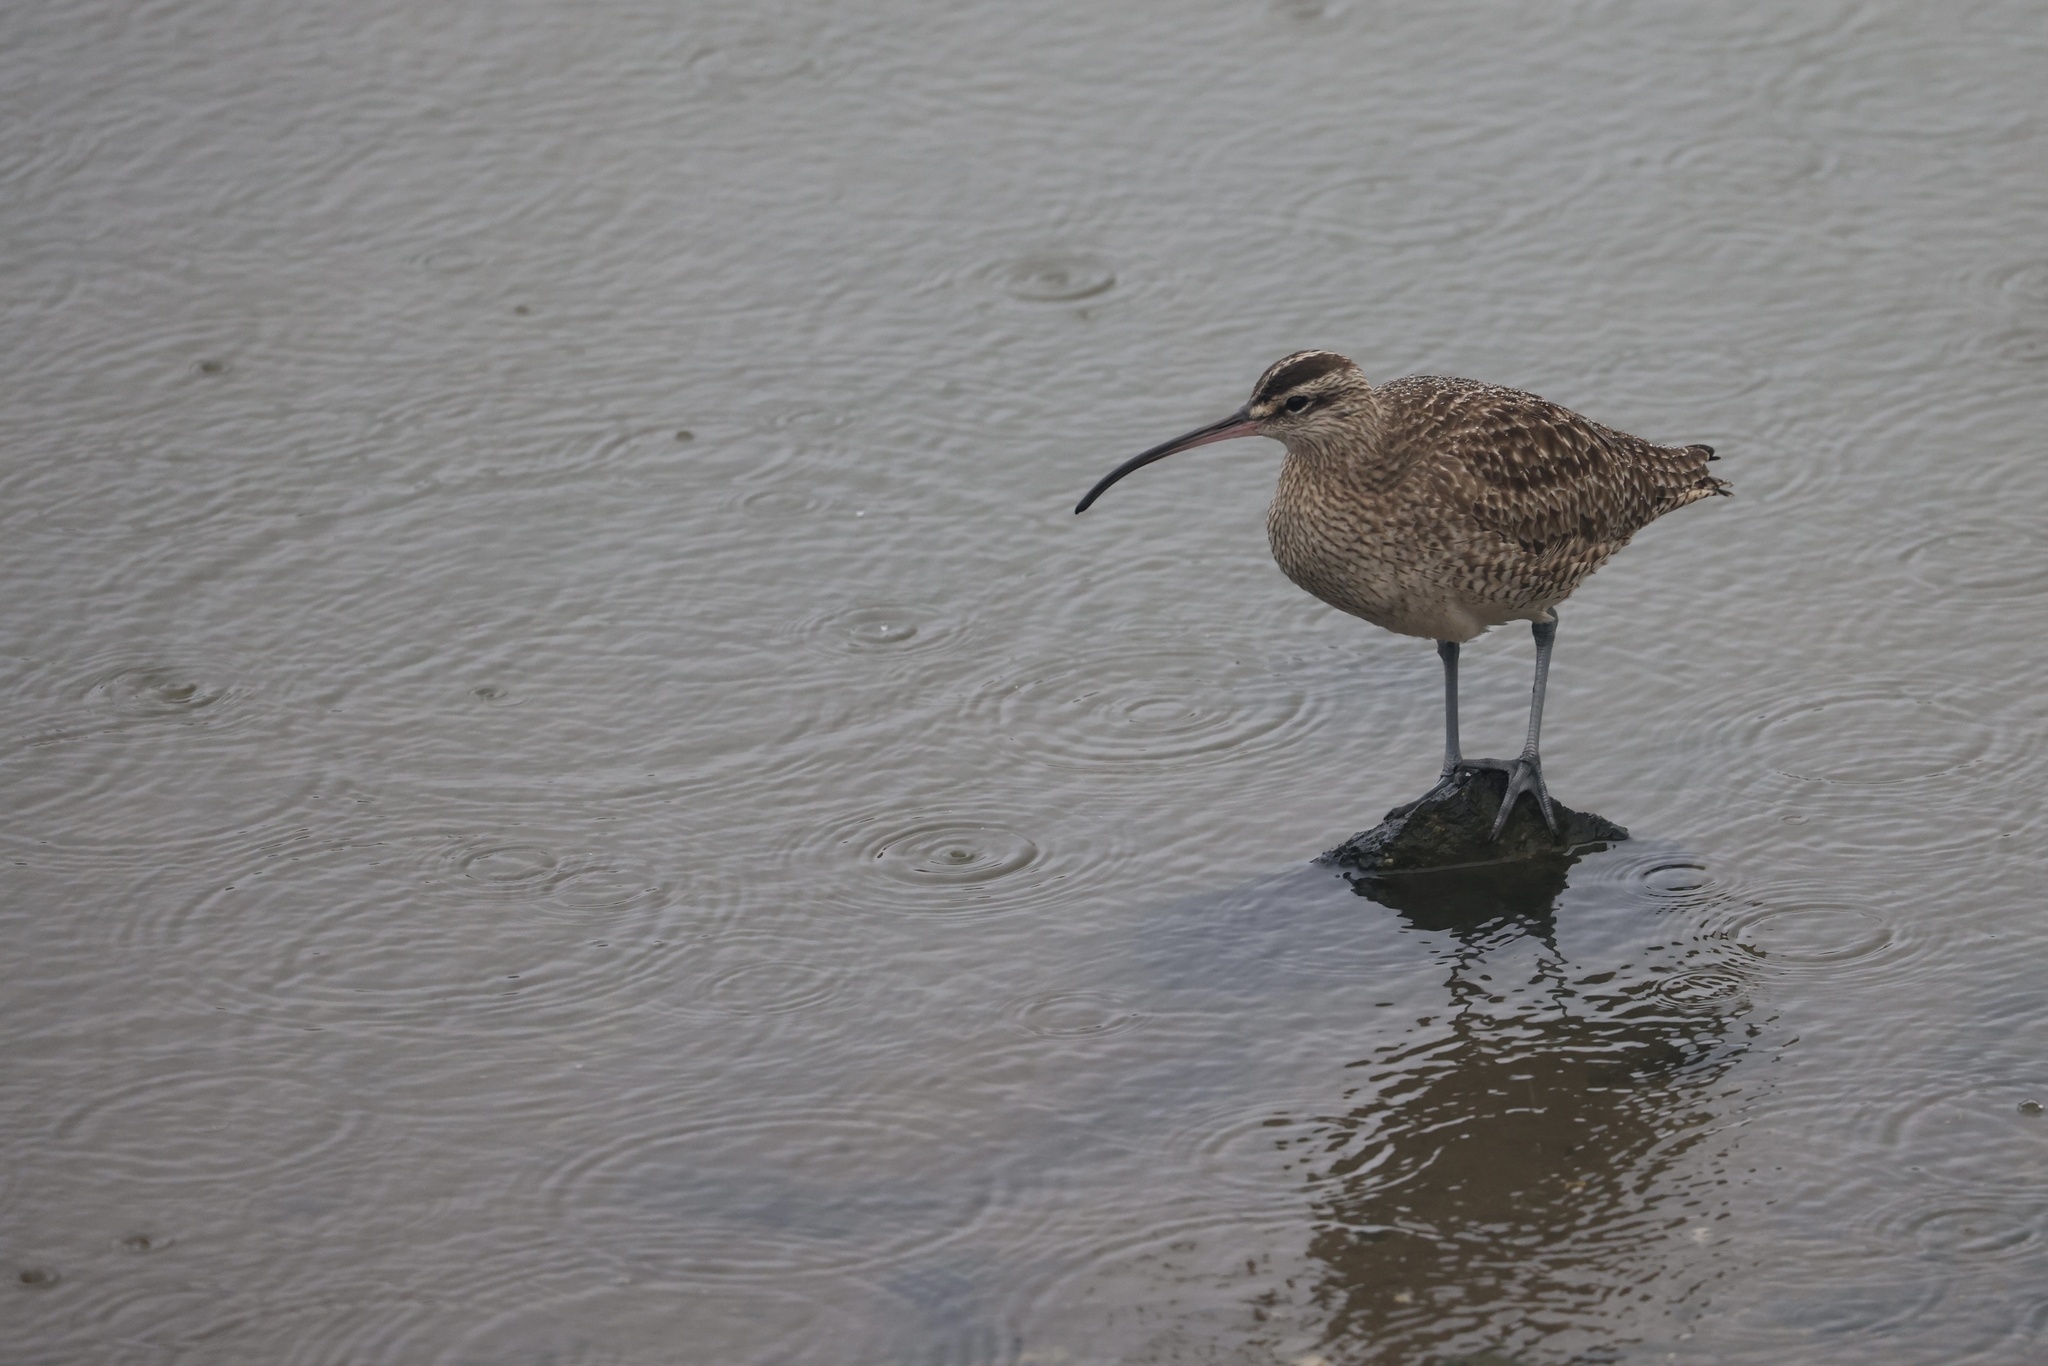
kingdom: Animalia
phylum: Chordata
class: Aves
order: Charadriiformes
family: Scolopacidae
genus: Numenius
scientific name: Numenius phaeopus
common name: Whimbrel
